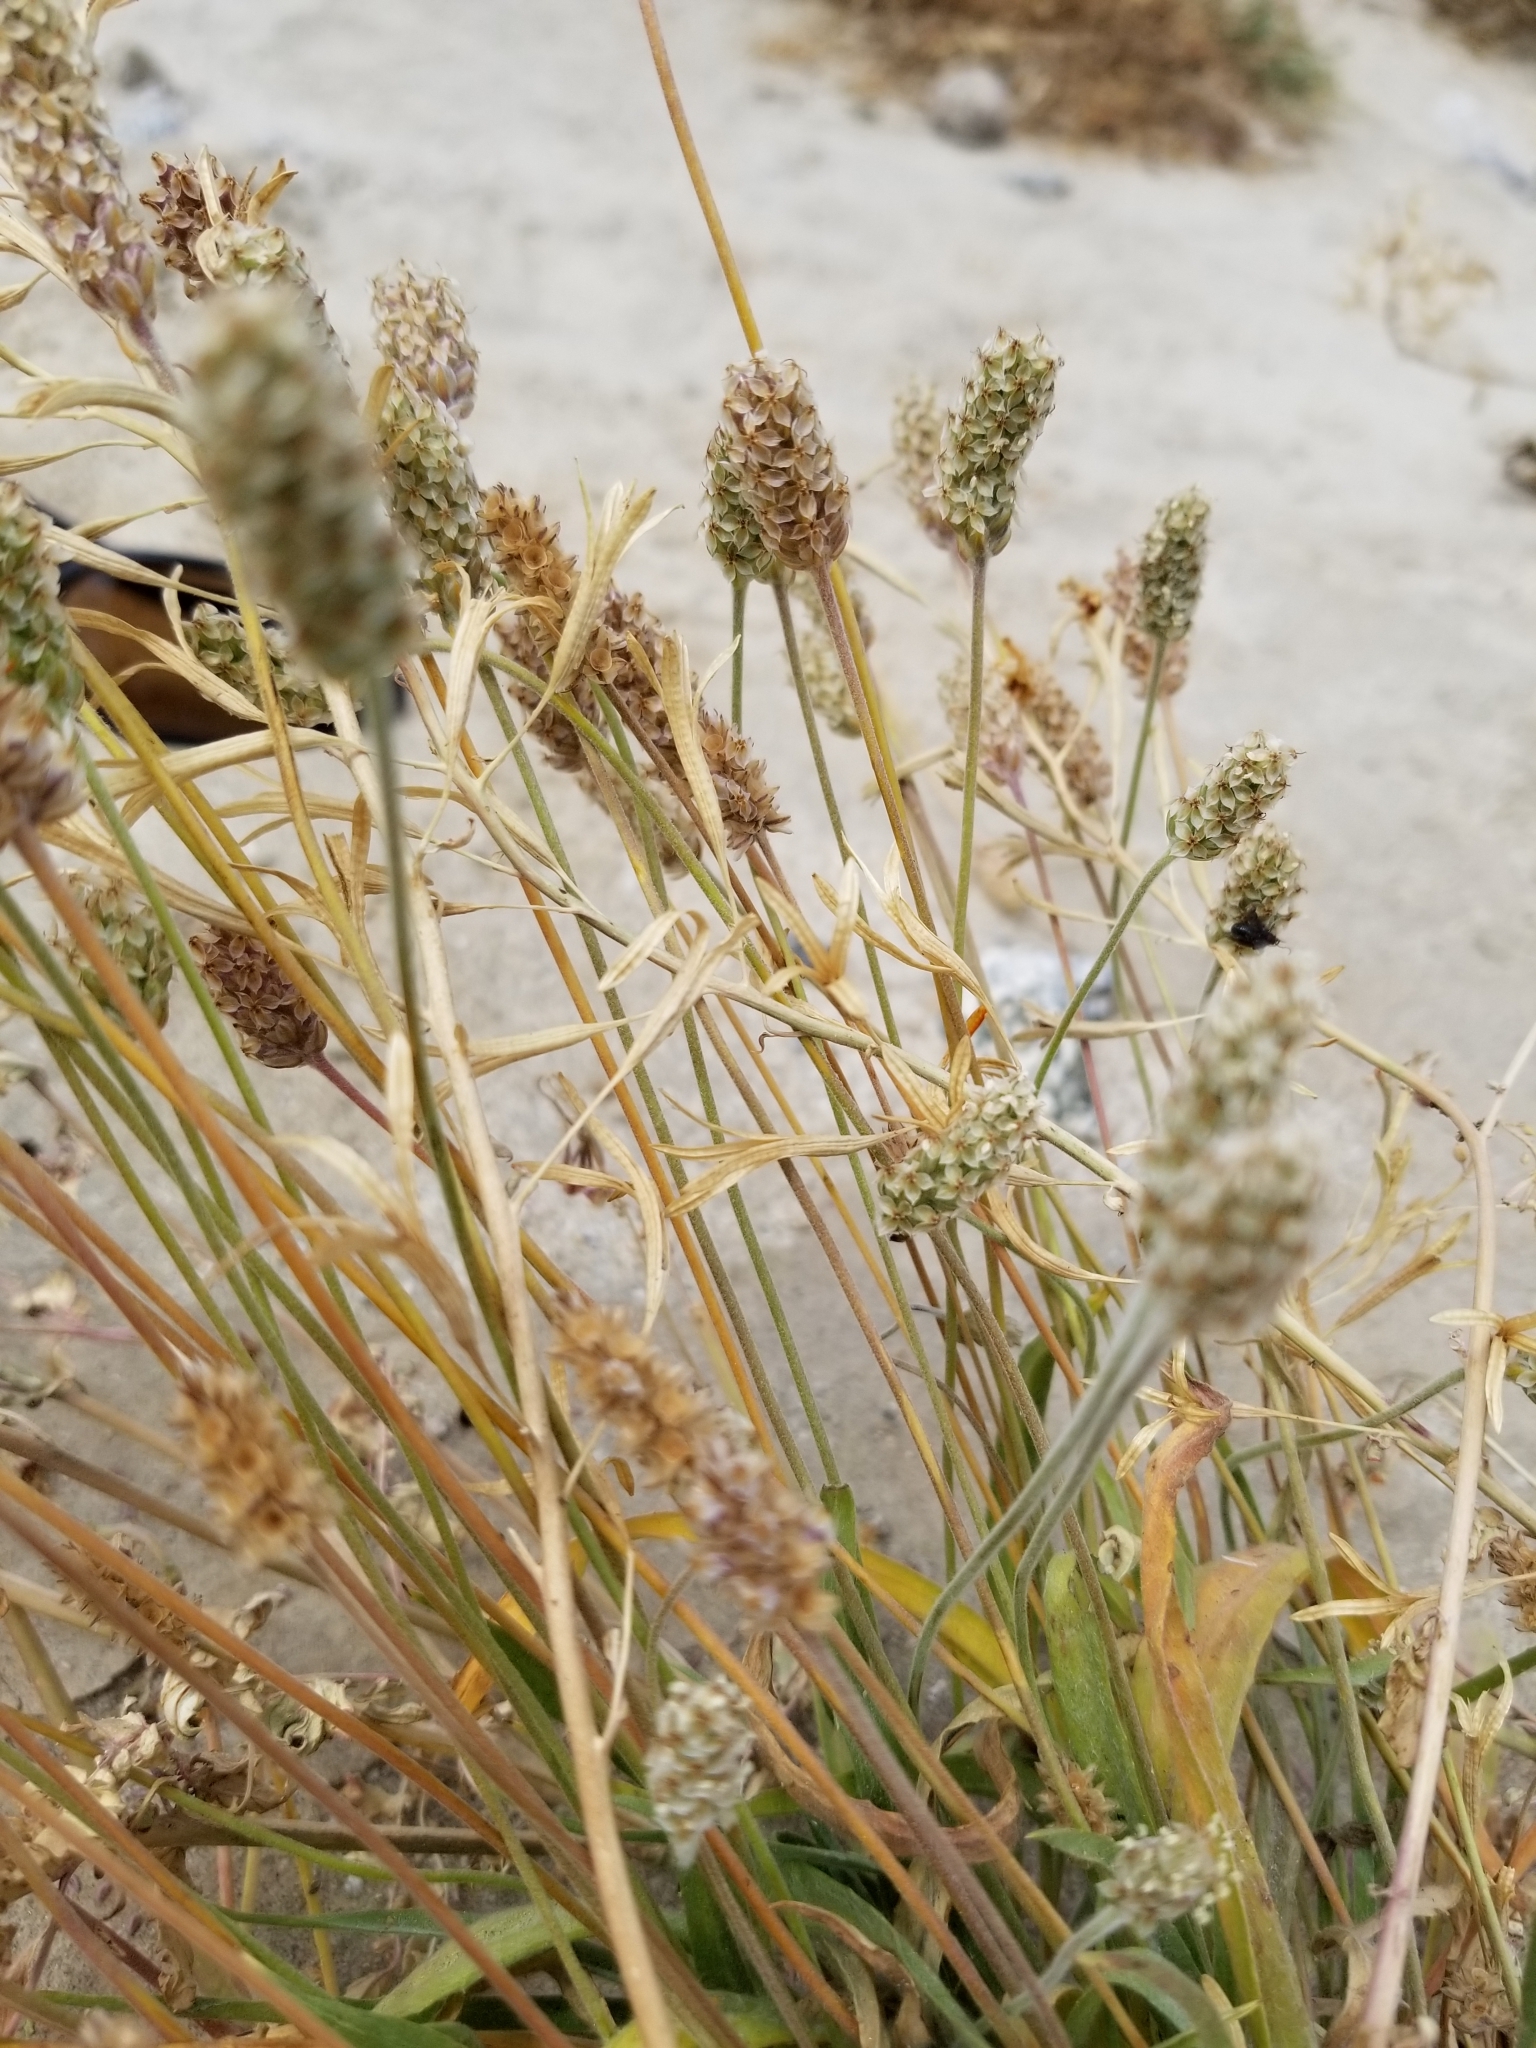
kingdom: Plantae
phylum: Tracheophyta
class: Magnoliopsida
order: Lamiales
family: Plantaginaceae
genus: Plantago
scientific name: Plantago ovata
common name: Blond plantain
